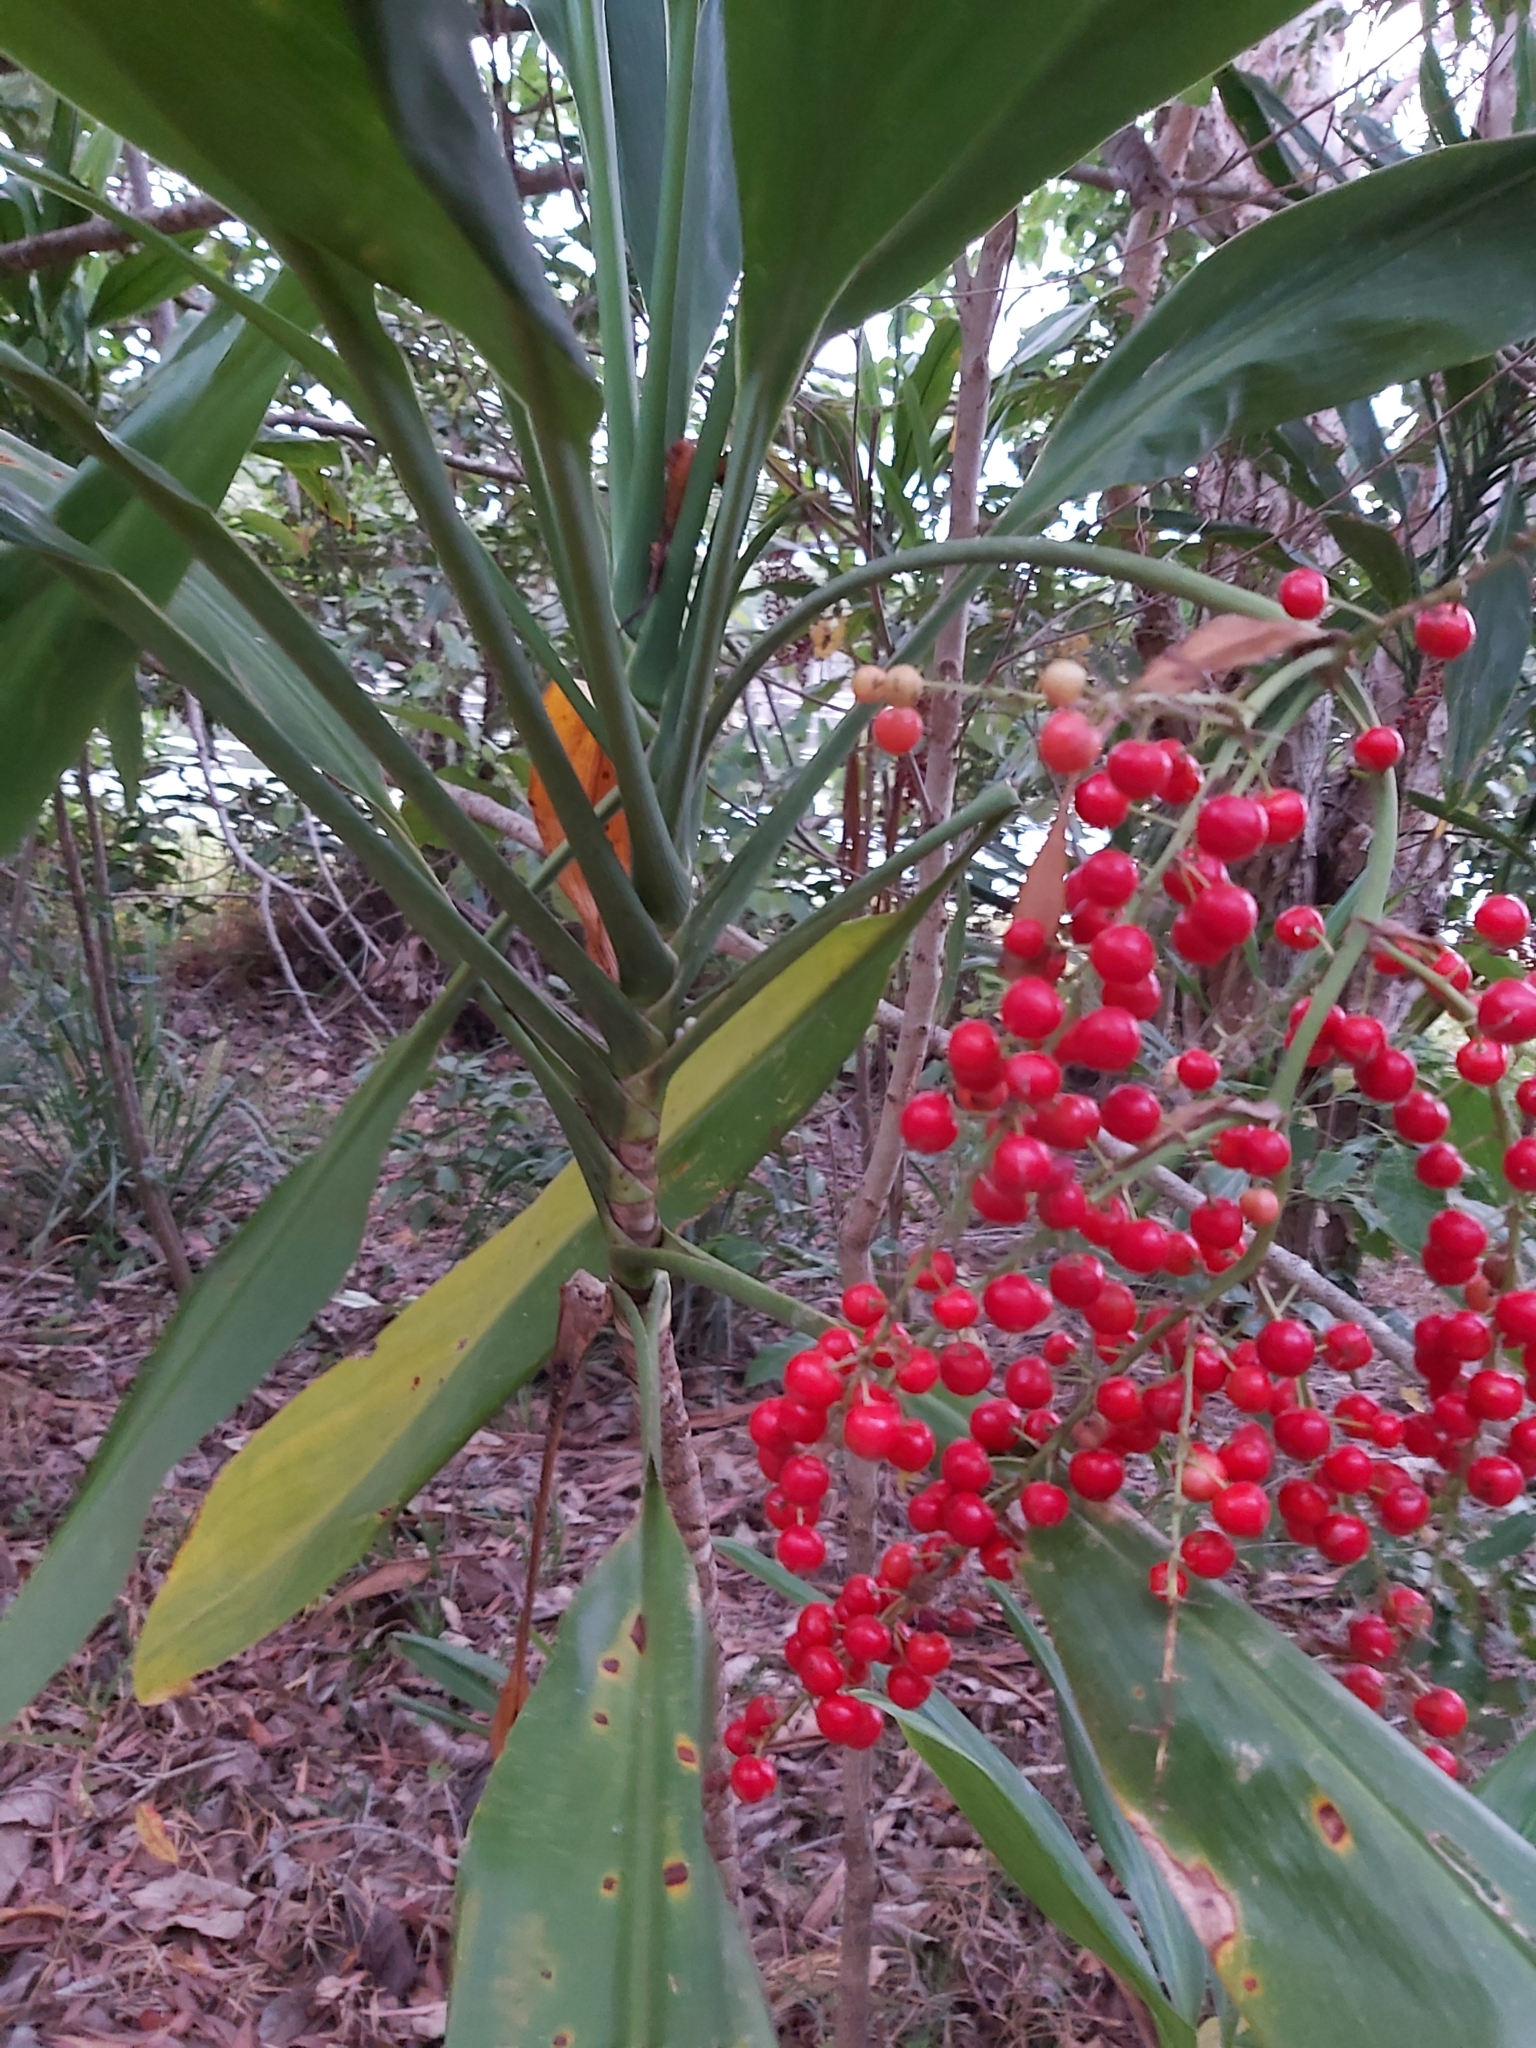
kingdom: Plantae
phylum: Tracheophyta
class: Liliopsida
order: Asparagales
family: Asparagaceae
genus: Cordyline
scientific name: Cordyline manners-suttoniae
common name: Giant palm-lily
